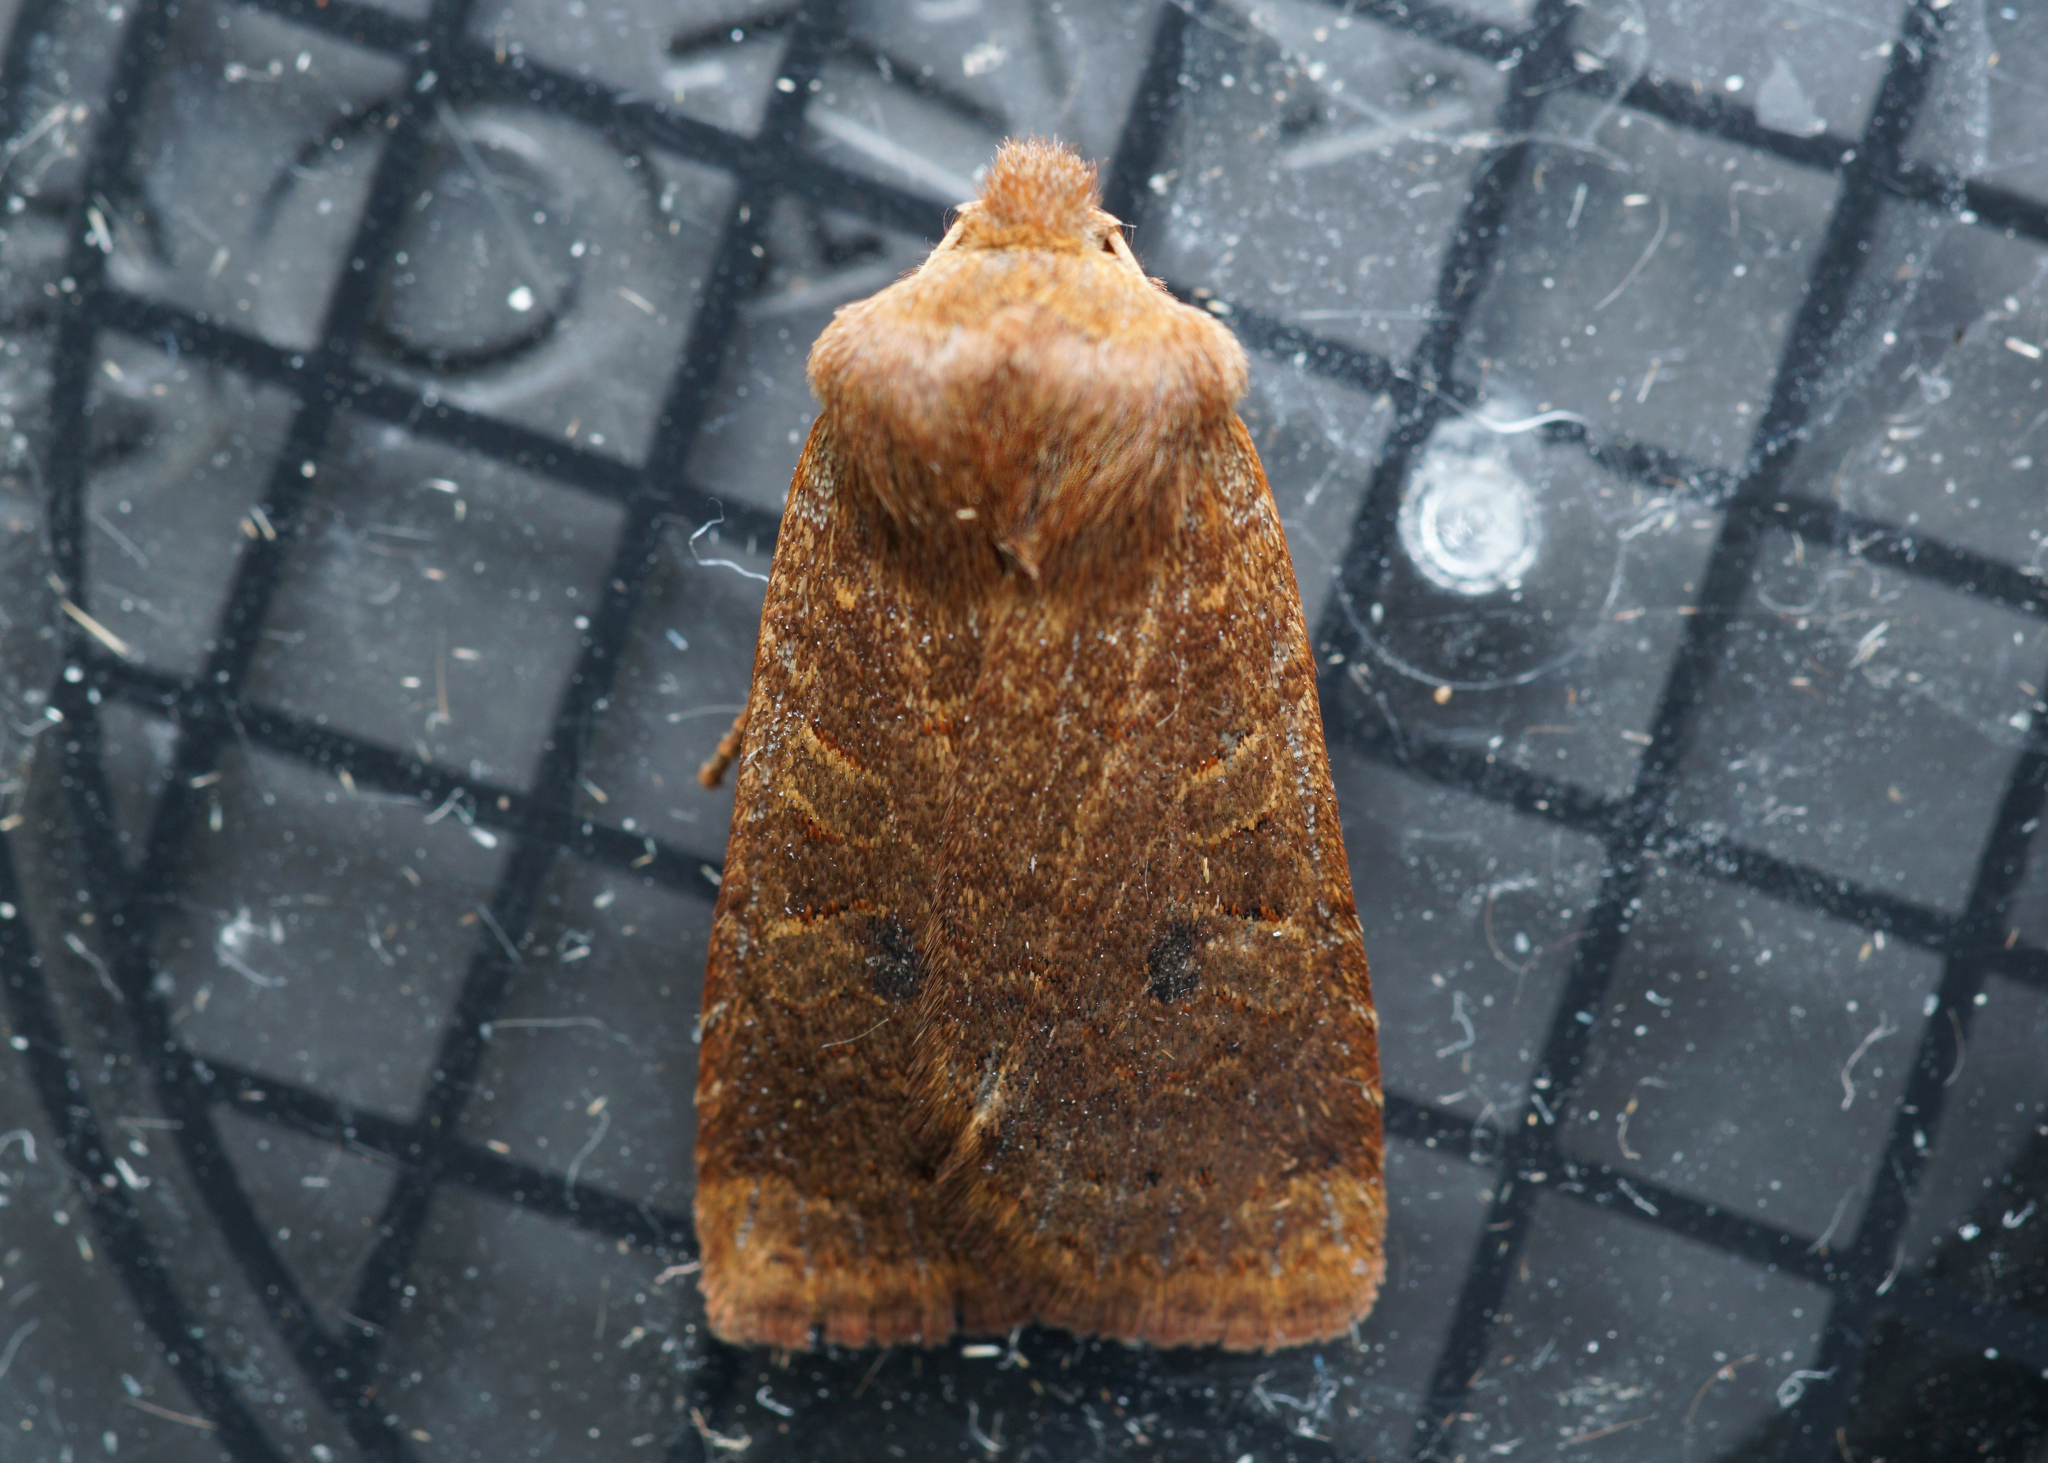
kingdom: Animalia
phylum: Arthropoda
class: Insecta
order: Lepidoptera
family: Noctuidae
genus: Conistra
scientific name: Conistra vaccinii
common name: Chestnut
